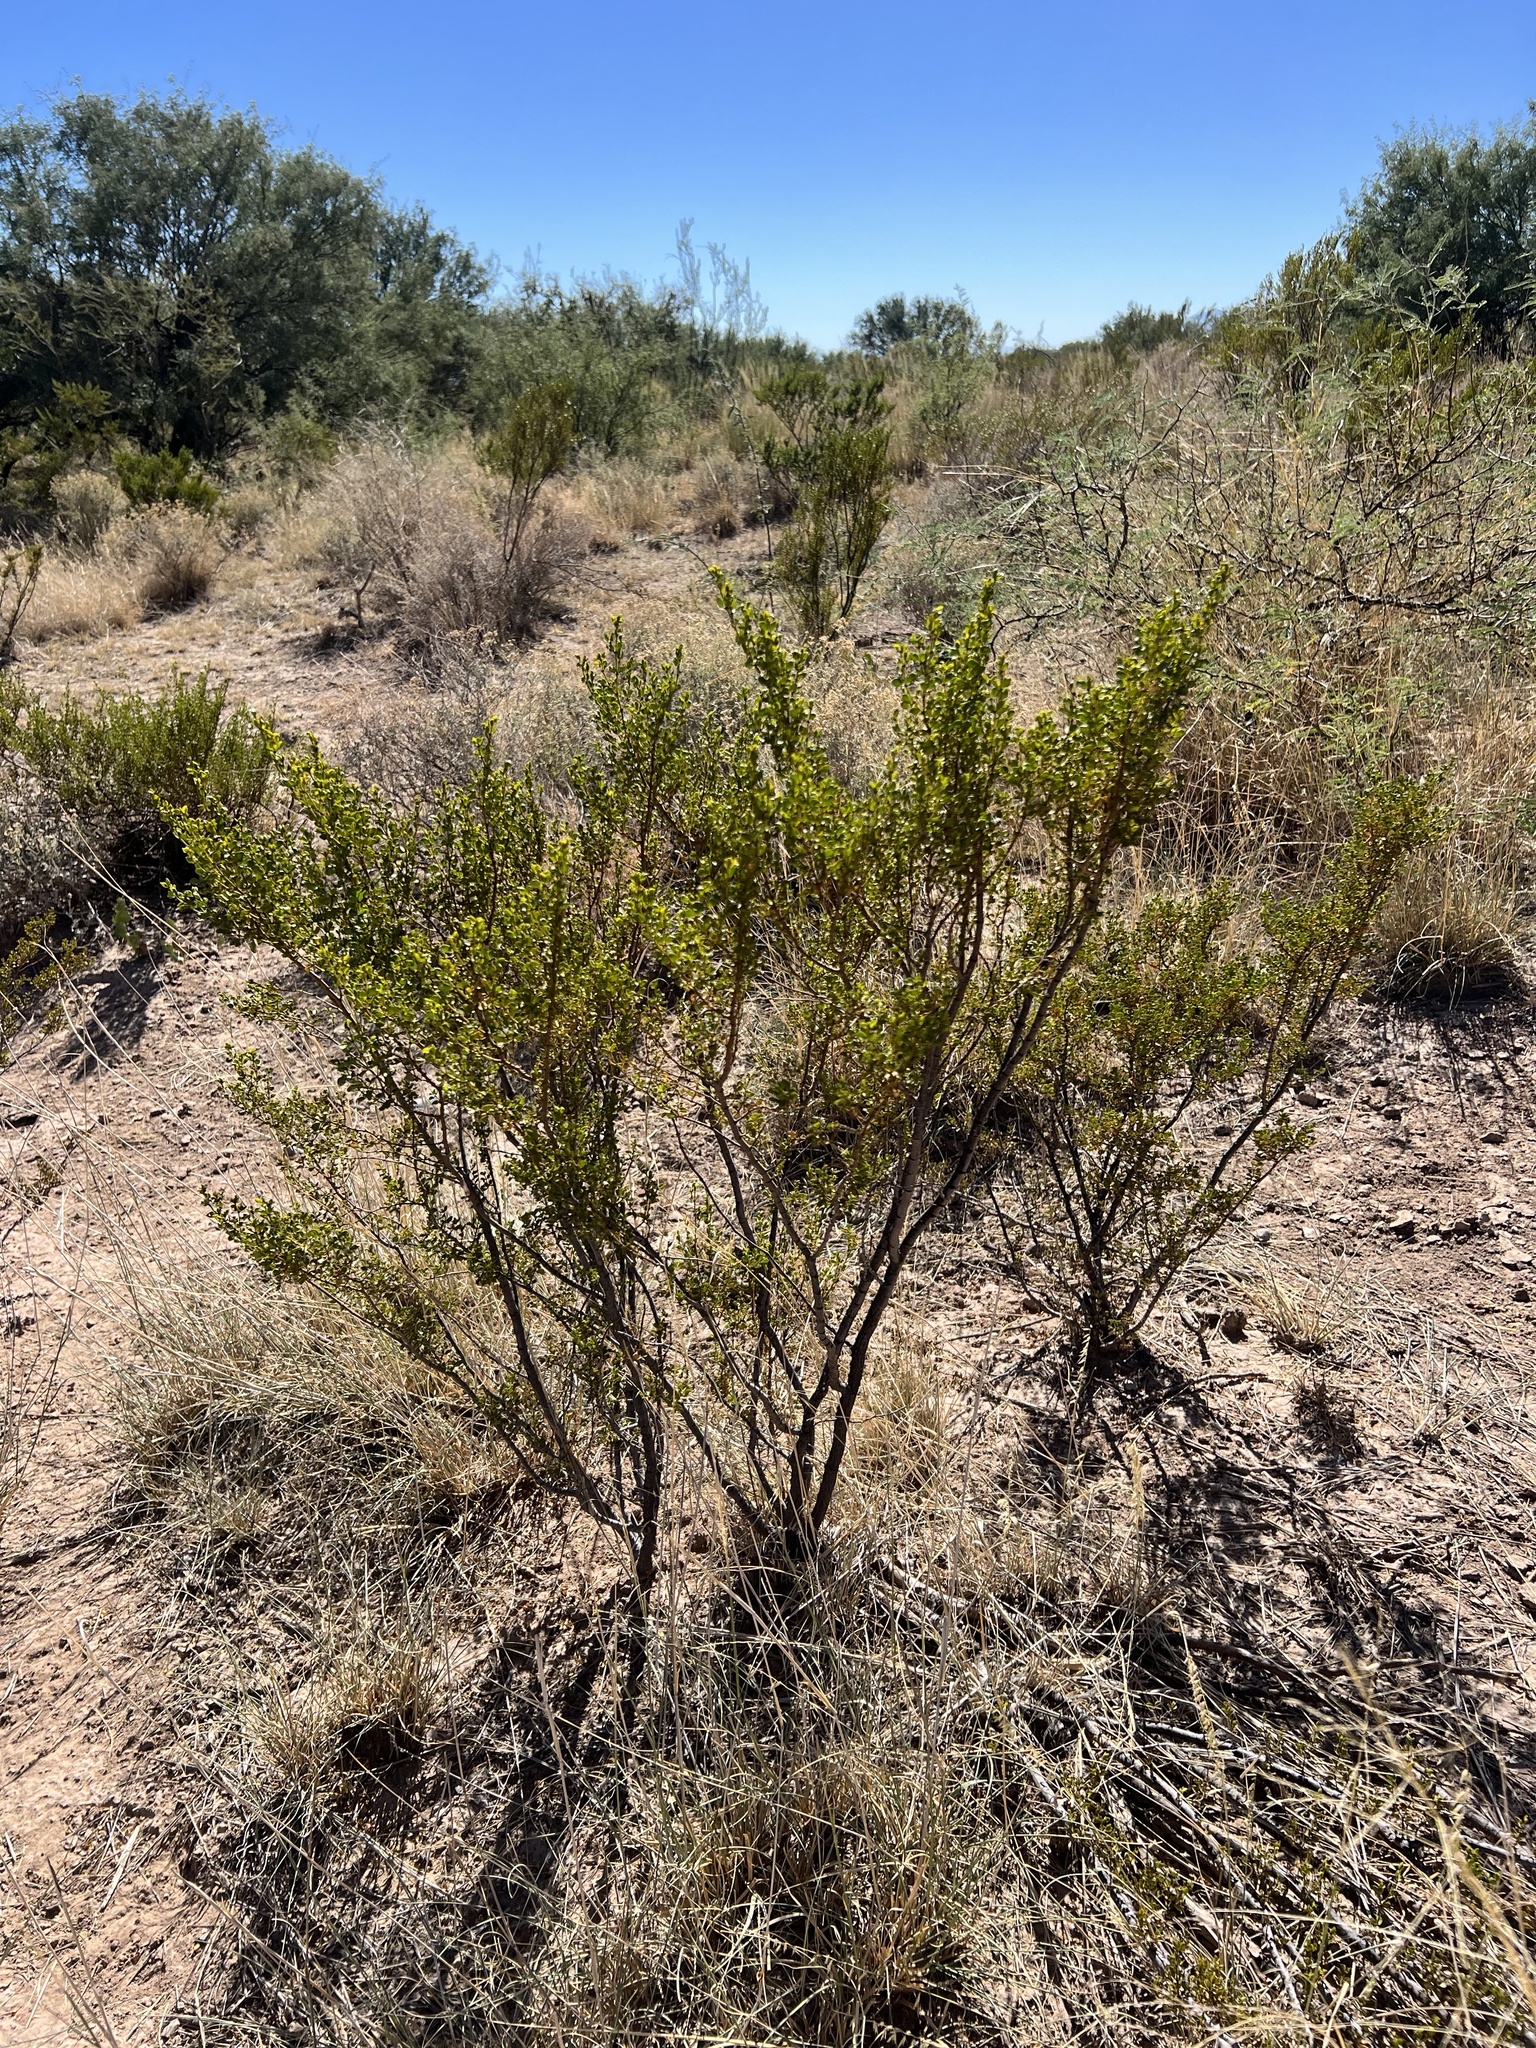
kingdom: Plantae
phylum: Tracheophyta
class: Magnoliopsida
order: Zygophyllales
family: Zygophyllaceae
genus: Larrea
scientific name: Larrea tridentata
